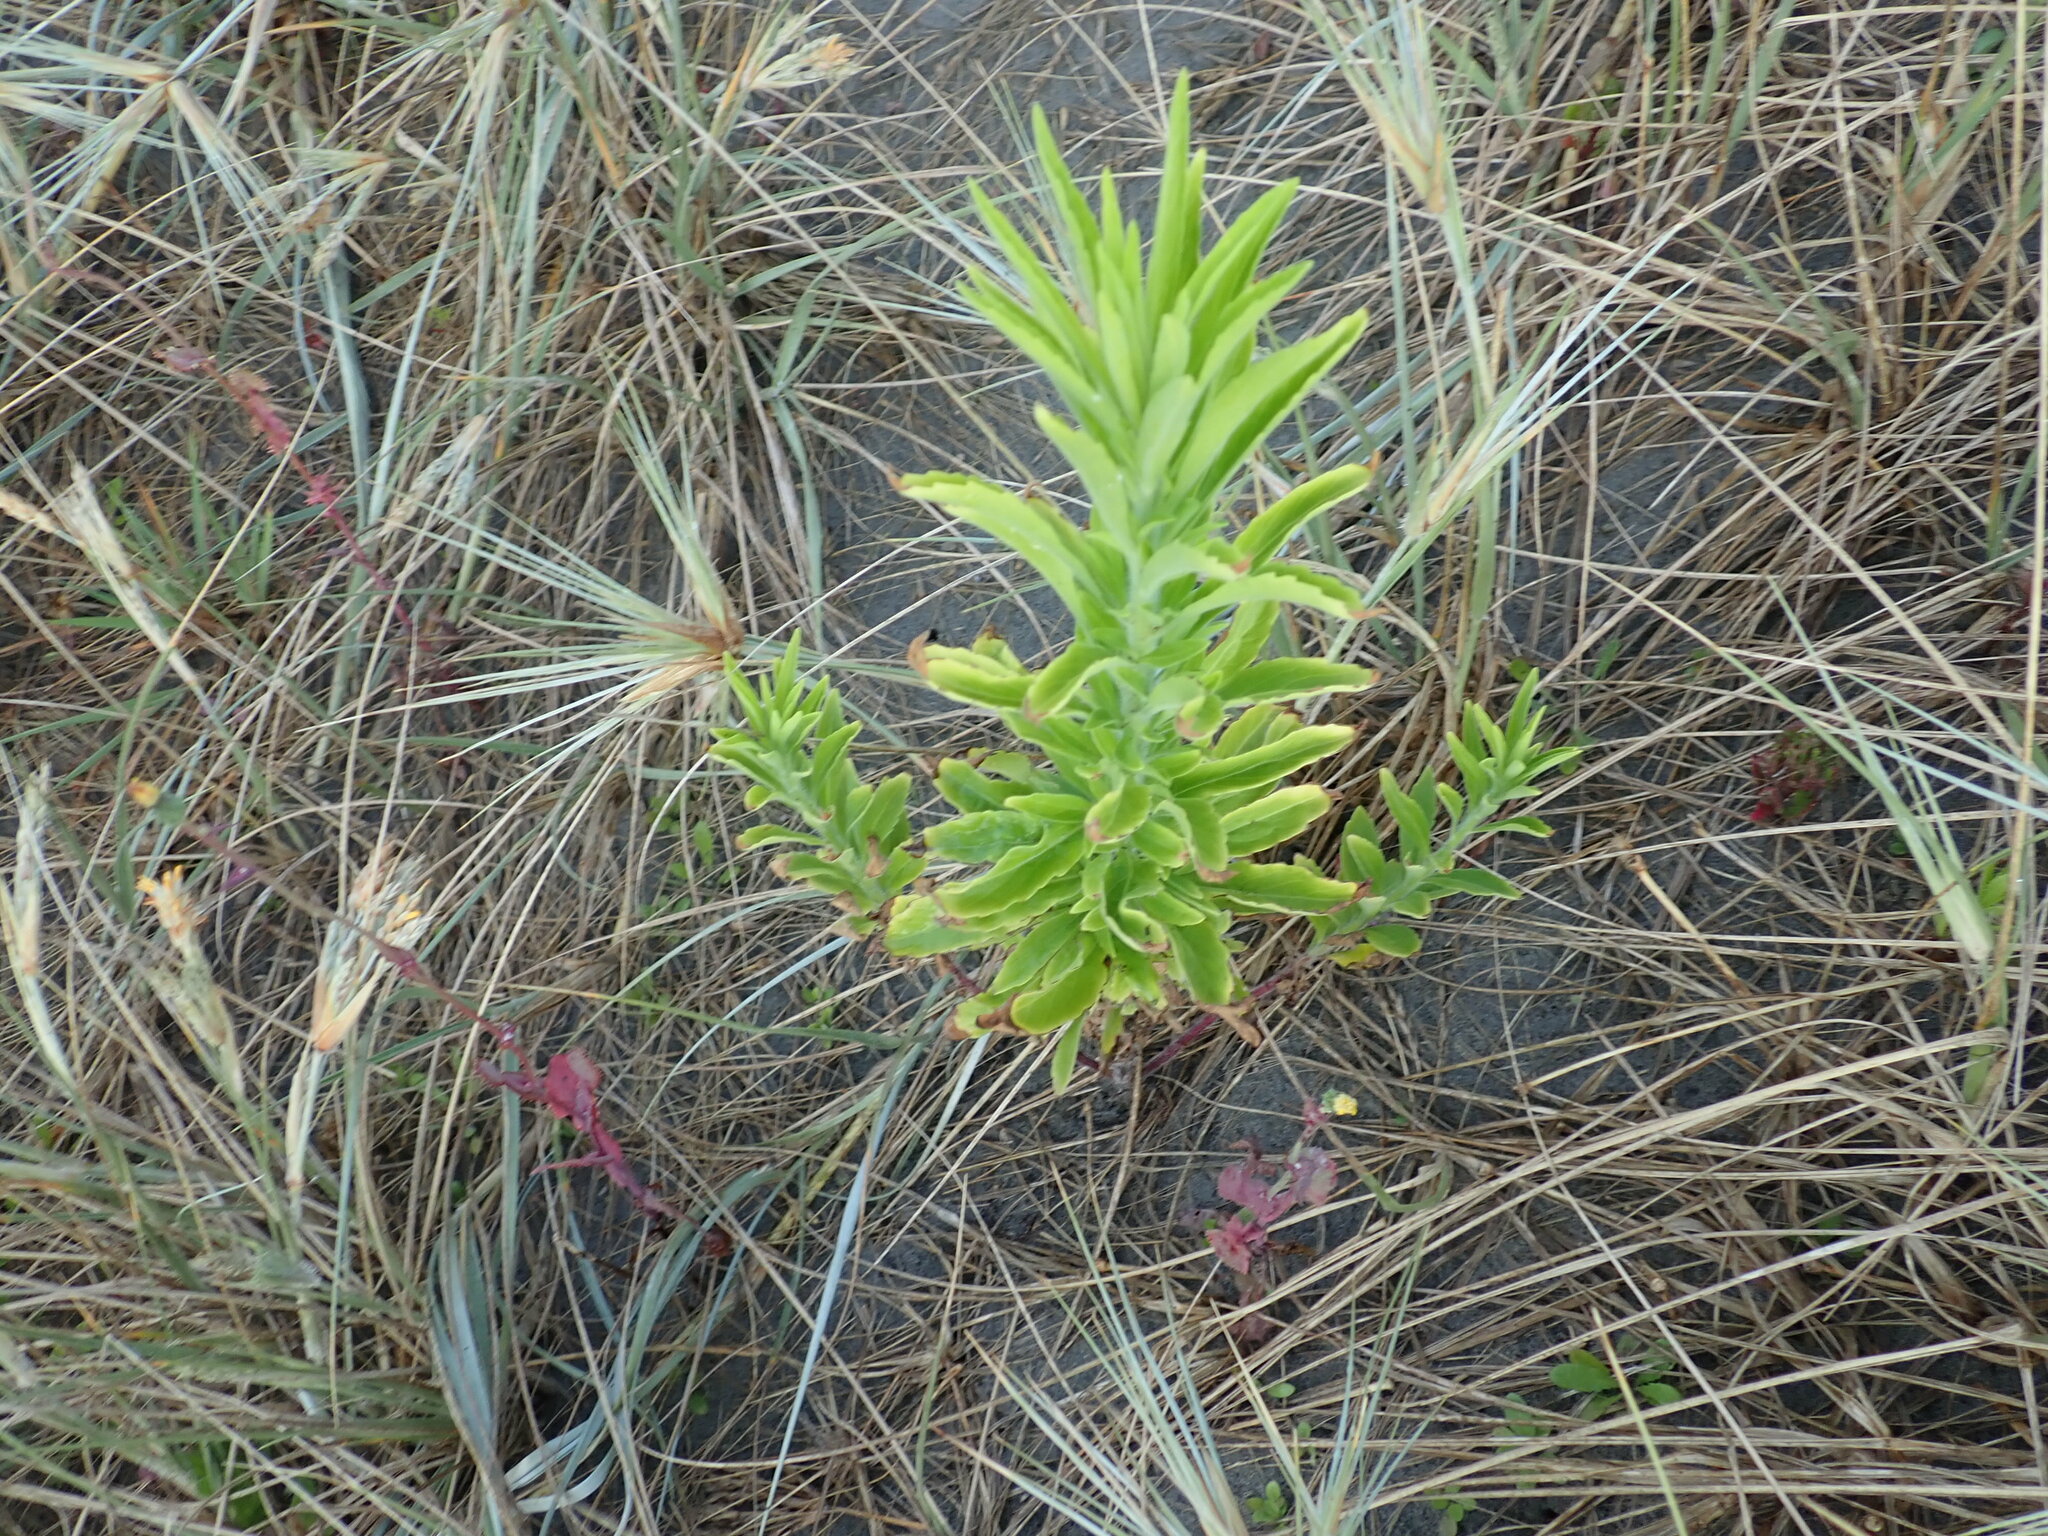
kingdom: Plantae
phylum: Tracheophyta
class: Magnoliopsida
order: Asterales
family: Asteraceae
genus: Erigeron
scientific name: Erigeron sumatrensis
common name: Daisy
